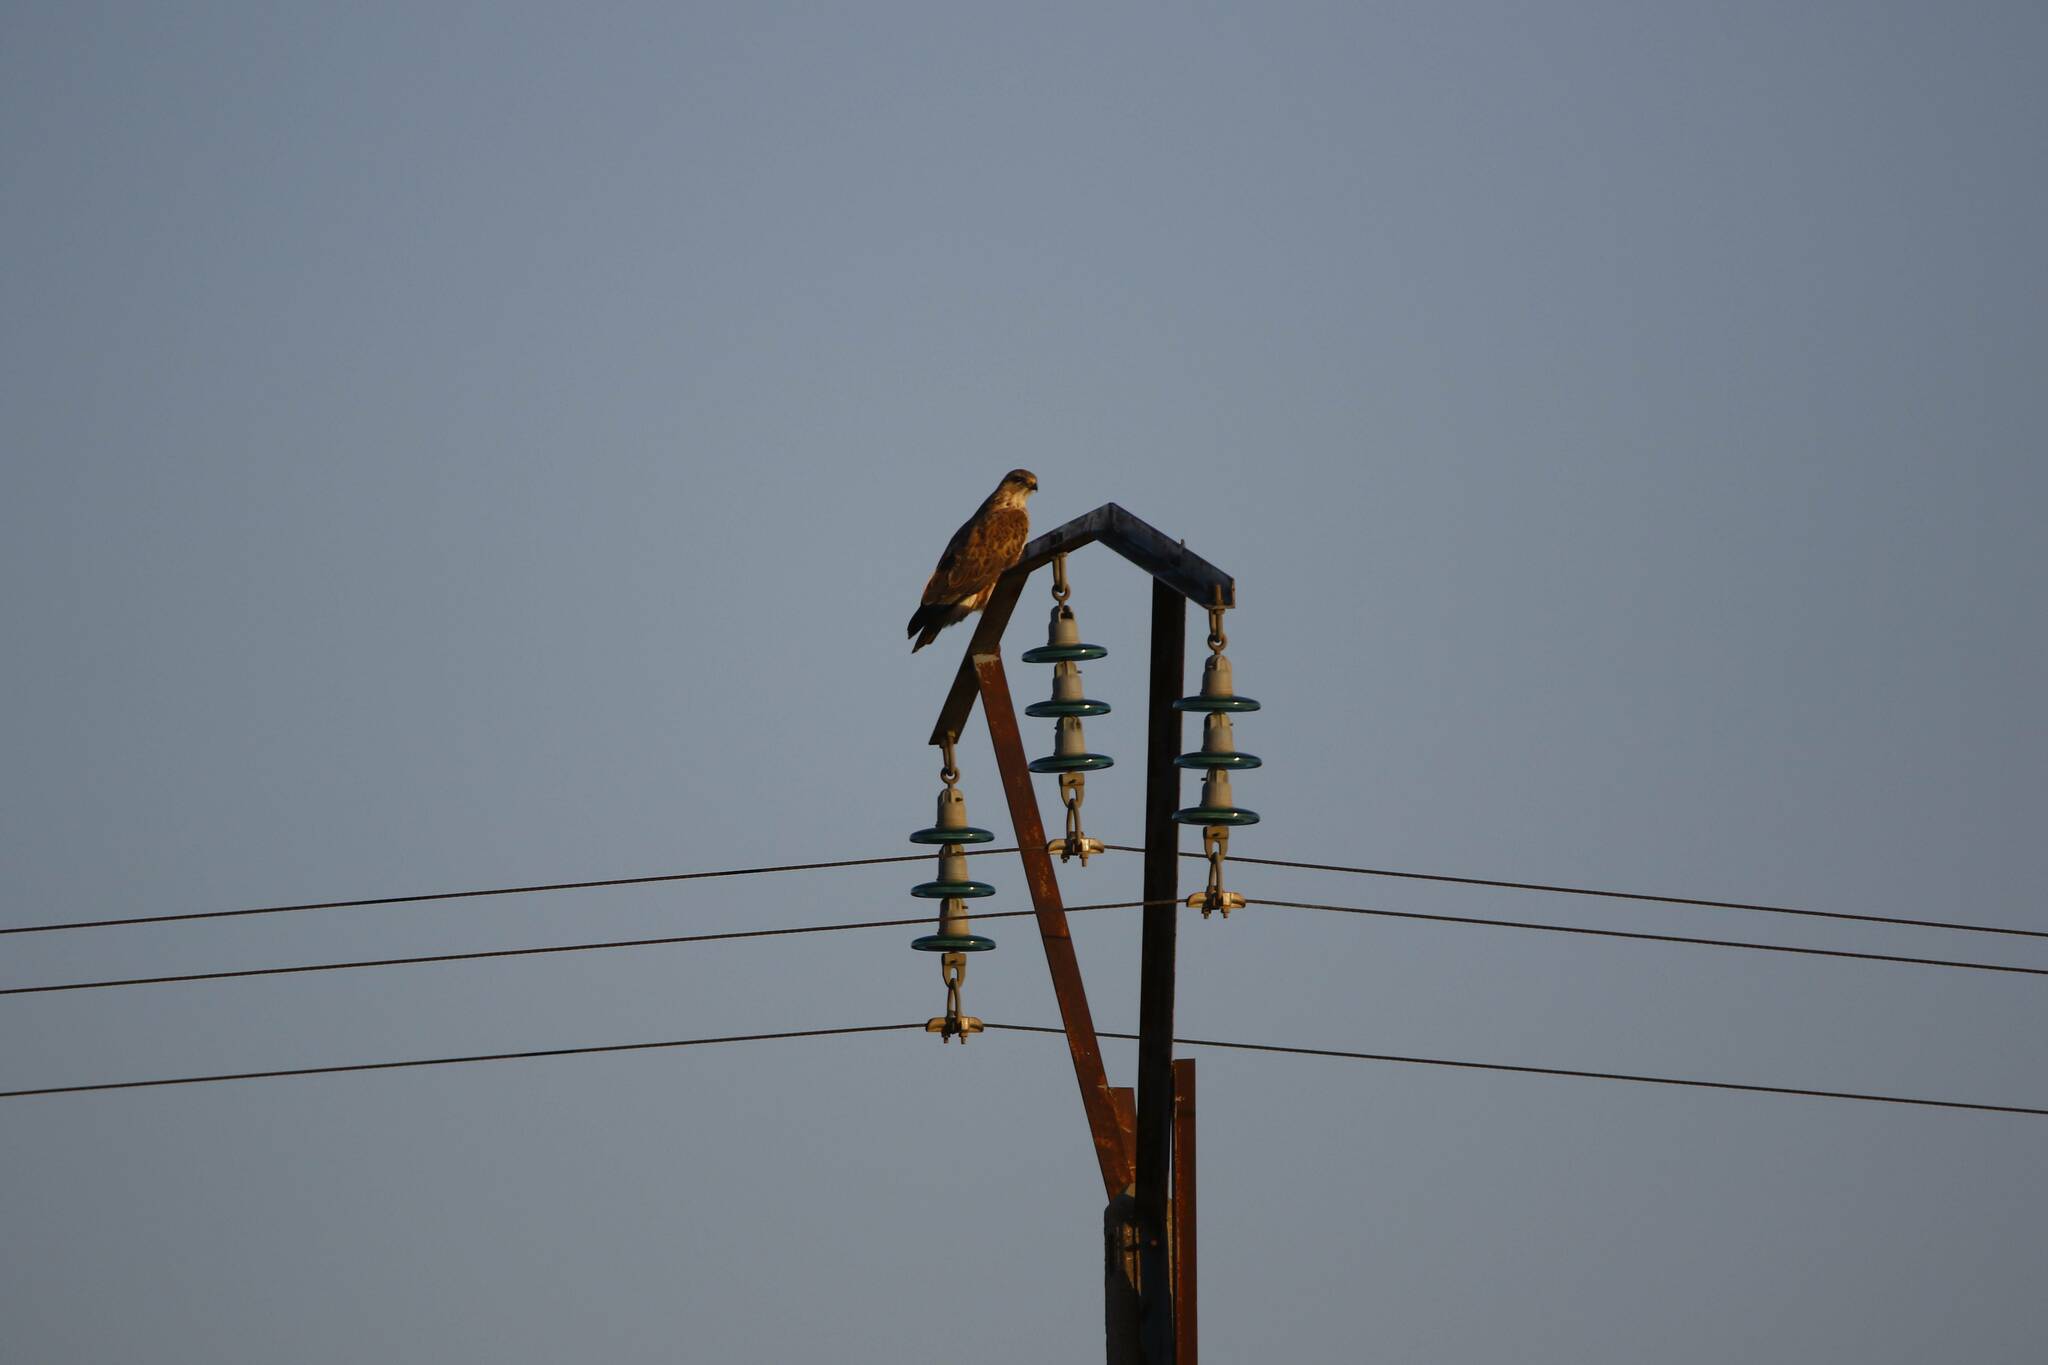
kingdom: Animalia
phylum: Chordata
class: Aves
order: Accipitriformes
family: Accipitridae
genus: Buteo
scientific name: Buteo rufinus
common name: Long-legged buzzard
